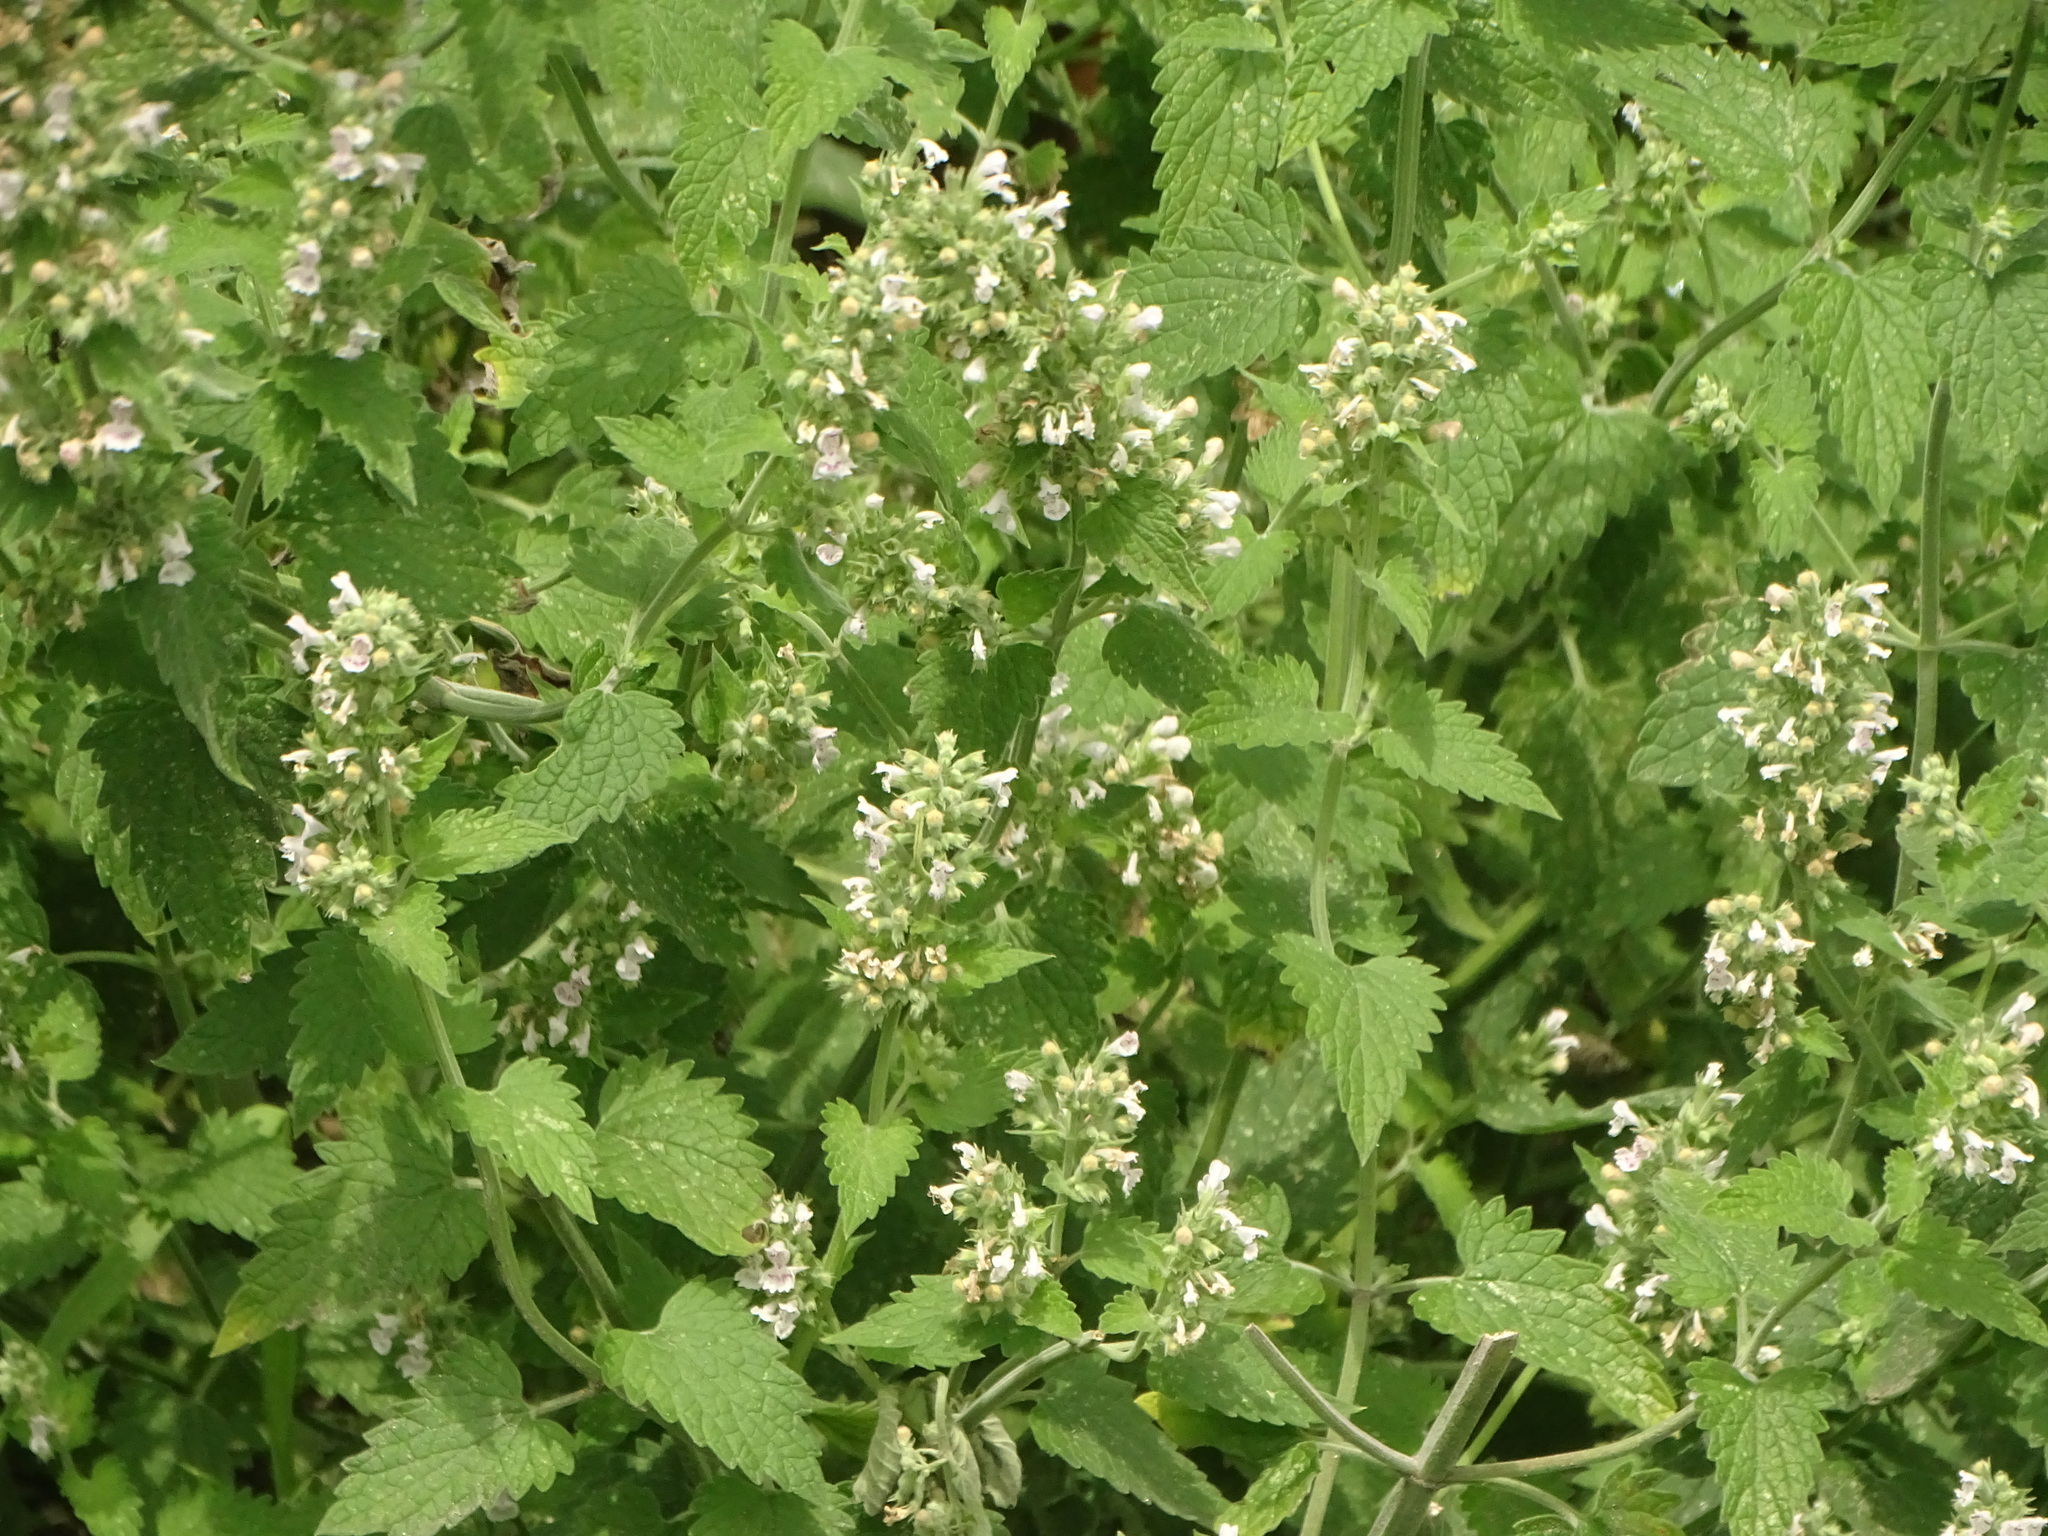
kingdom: Plantae
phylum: Tracheophyta
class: Magnoliopsida
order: Lamiales
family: Lamiaceae
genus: Nepeta
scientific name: Nepeta cataria
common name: Catnip
